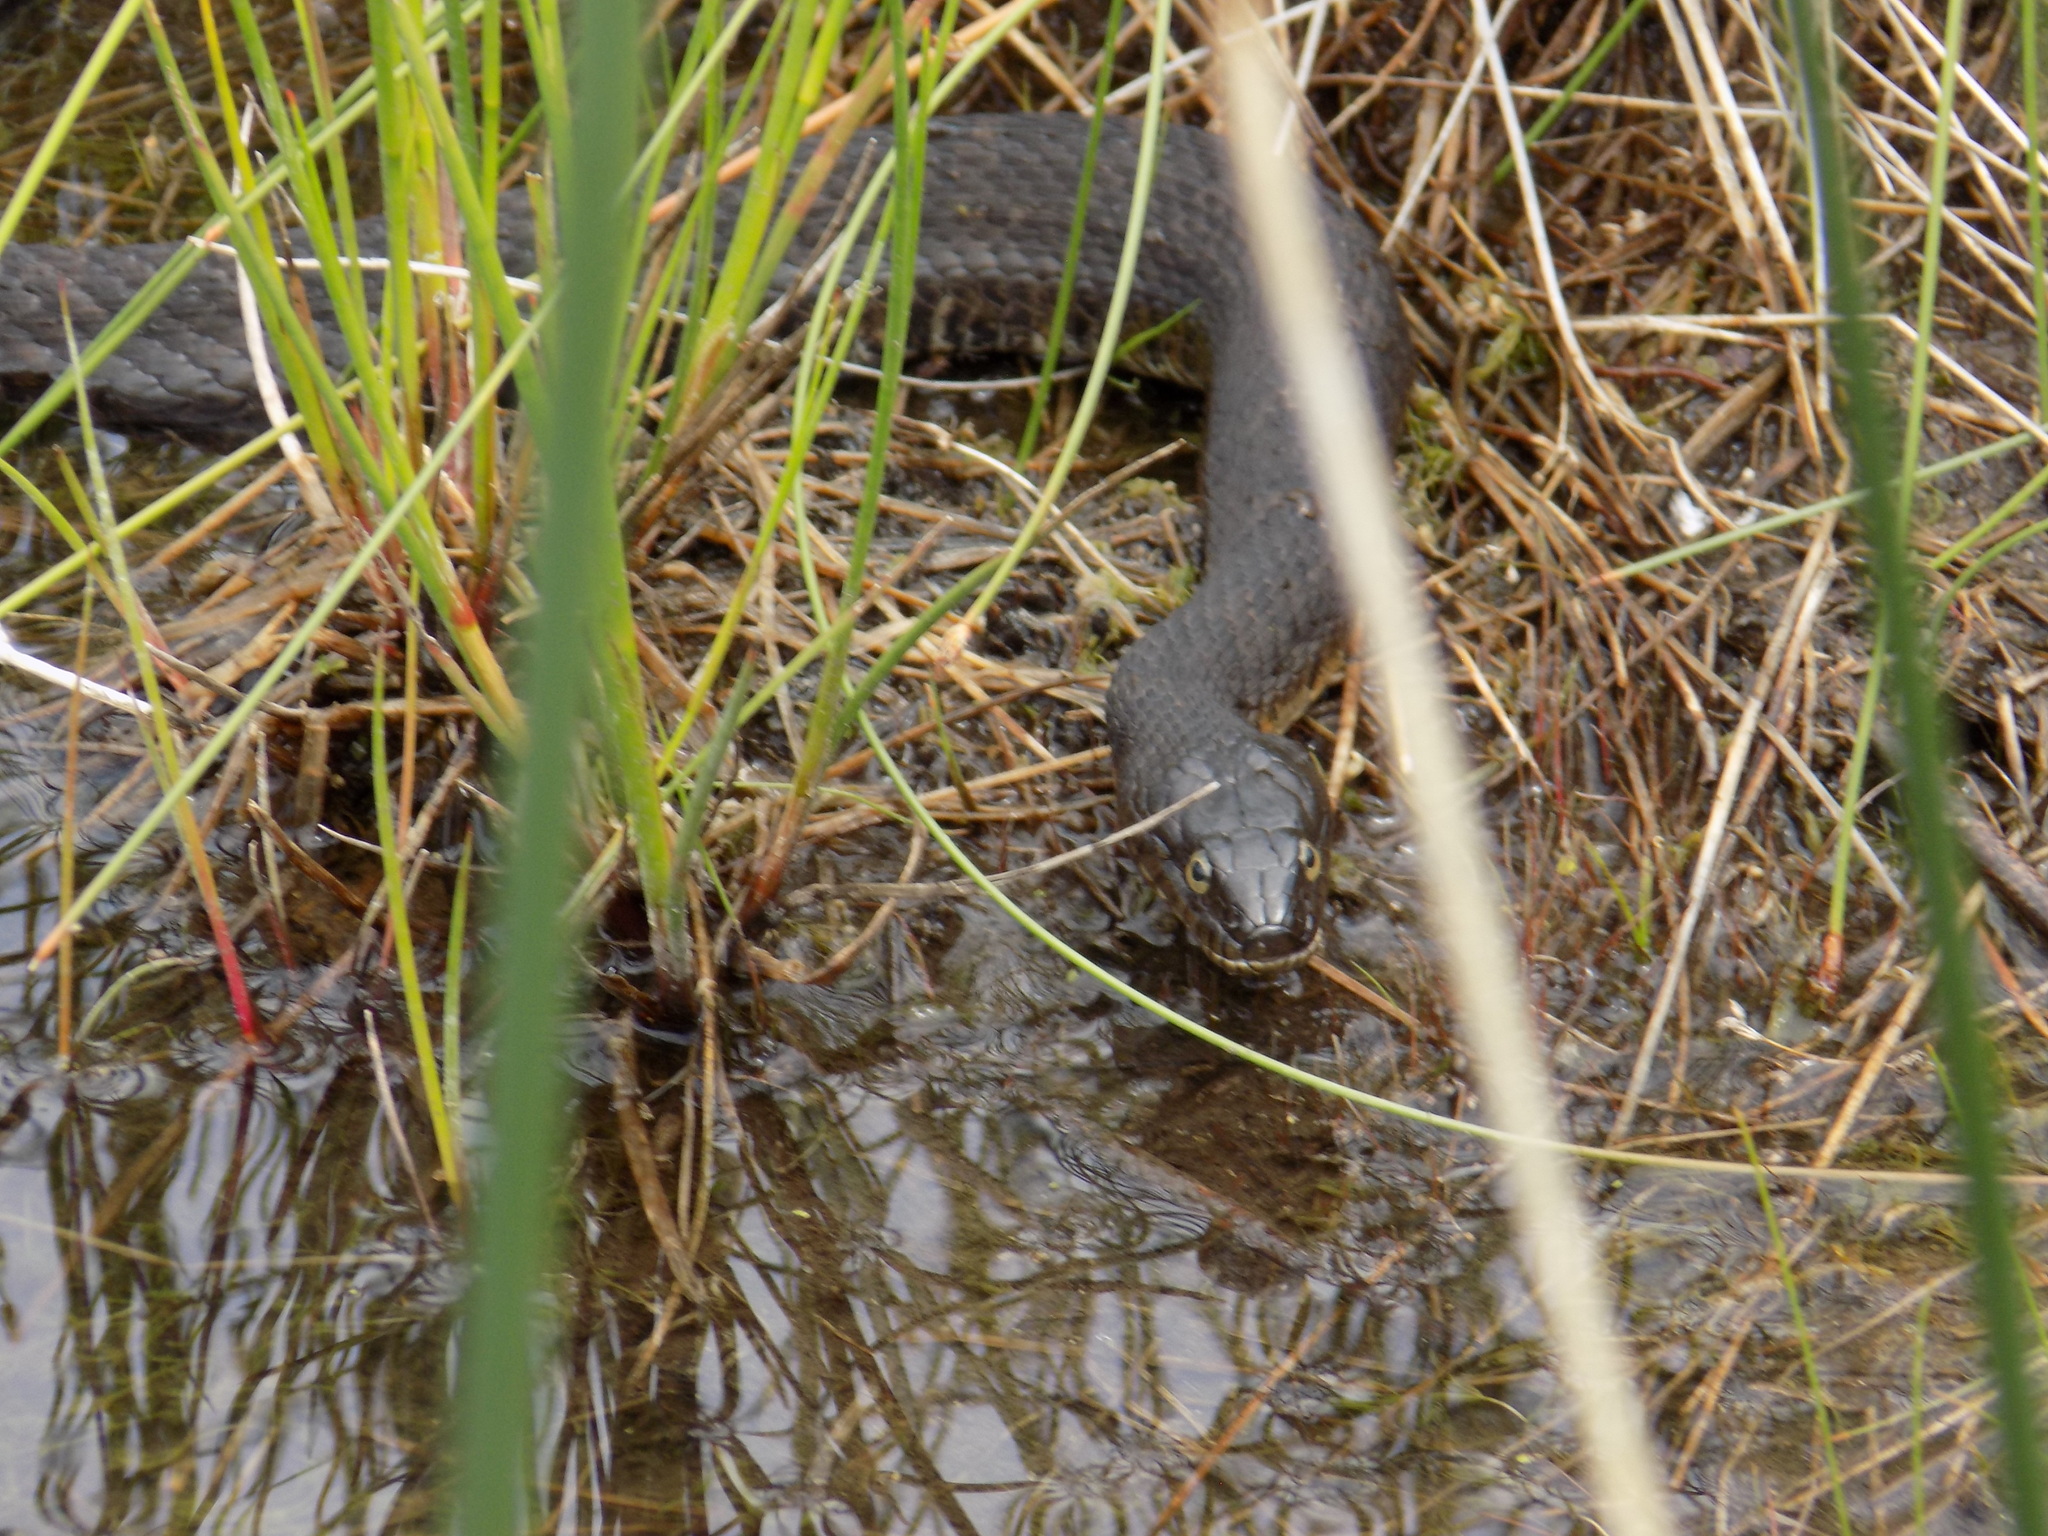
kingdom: Animalia
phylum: Chordata
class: Squamata
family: Colubridae
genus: Nerodia
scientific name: Nerodia sipedon
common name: Northern water snake
